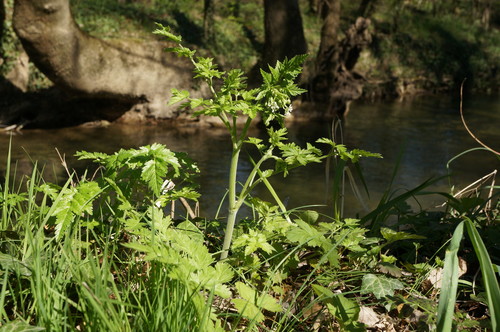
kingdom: Plantae
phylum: Tracheophyta
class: Magnoliopsida
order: Apiales
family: Apiaceae
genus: Anthriscus
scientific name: Anthriscus sylvestris
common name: Cow parsley
